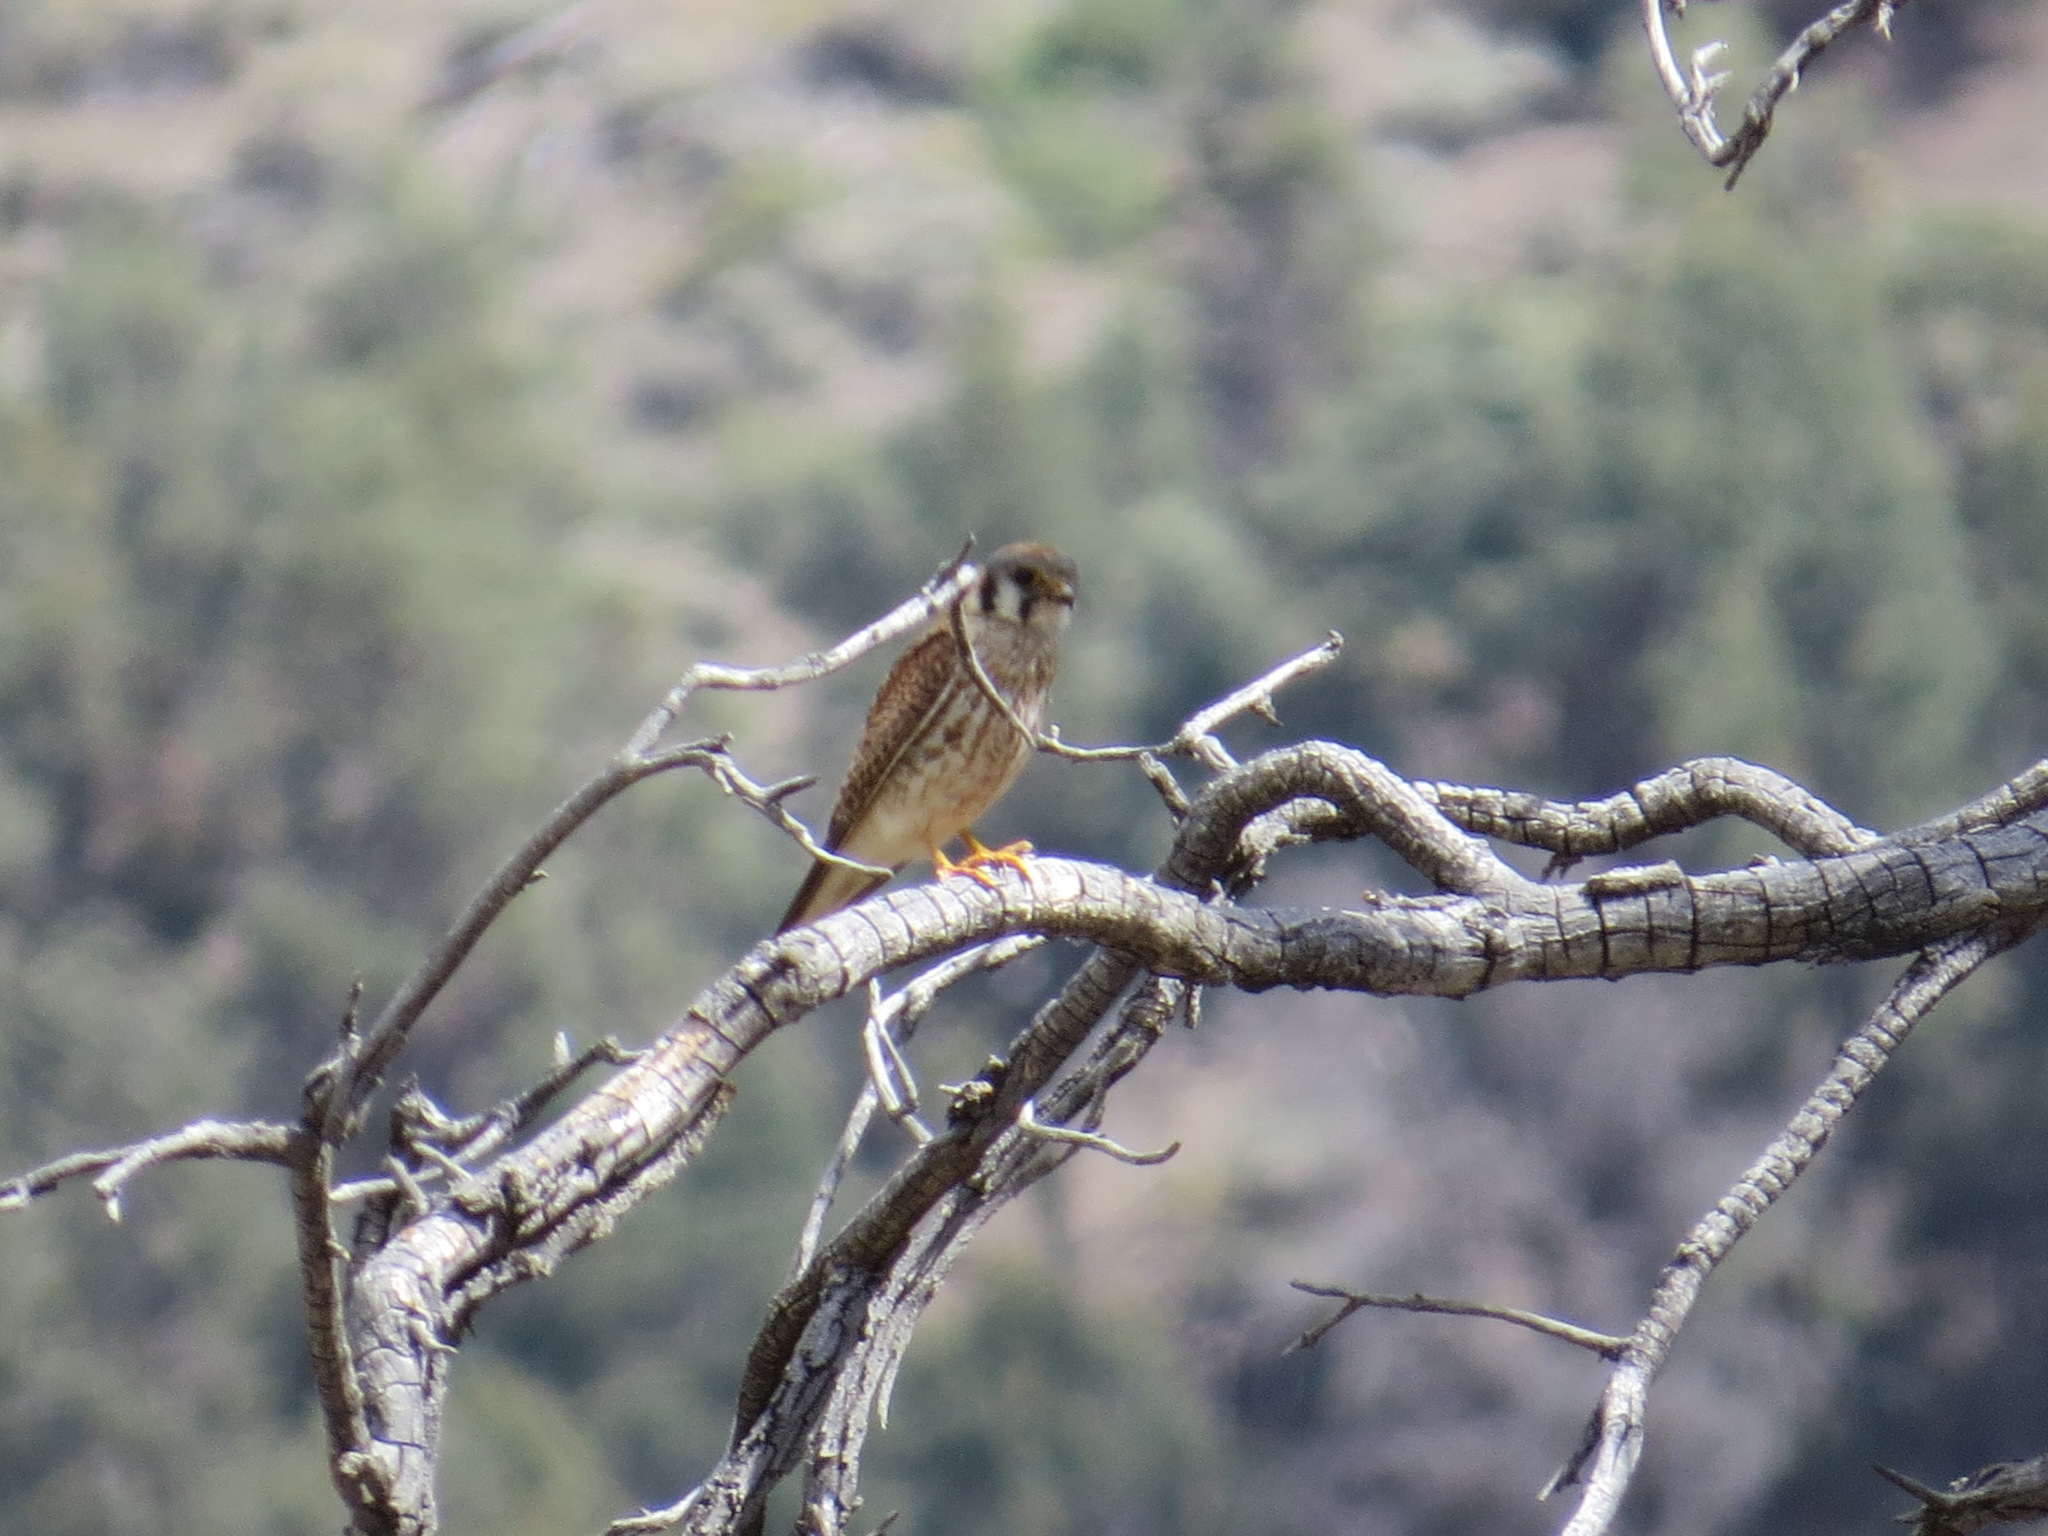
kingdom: Animalia
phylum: Chordata
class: Aves
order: Falconiformes
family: Falconidae
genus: Falco
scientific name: Falco sparverius
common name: American kestrel
